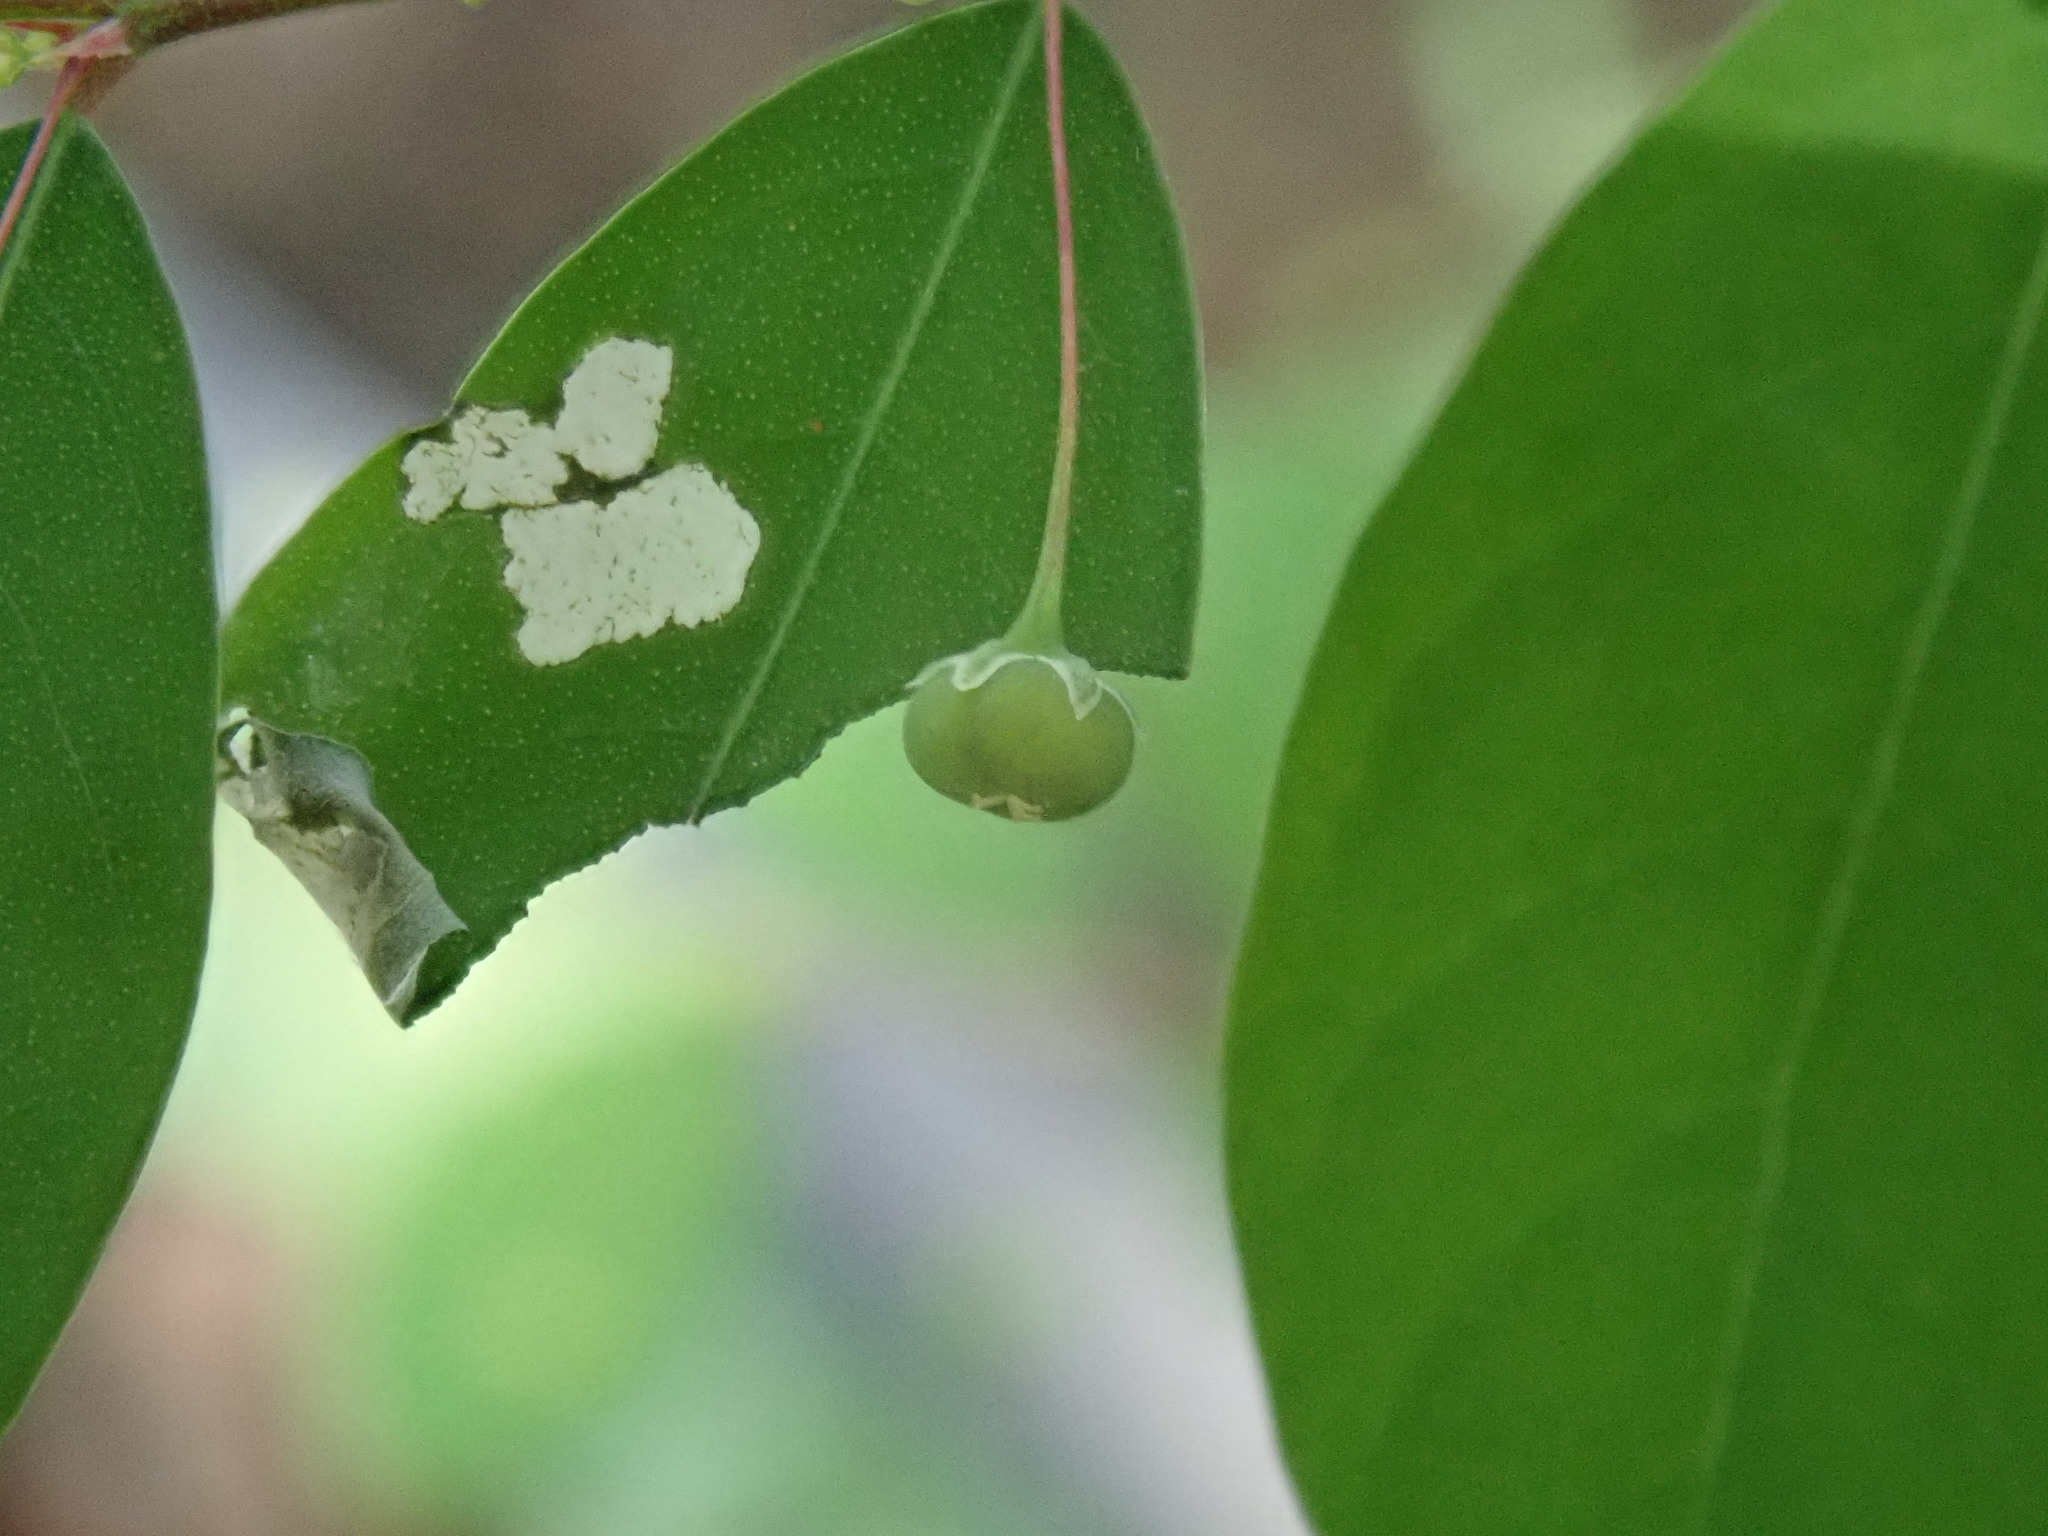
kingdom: Plantae
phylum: Tracheophyta
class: Magnoliopsida
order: Malpighiales
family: Phyllanthaceae
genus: Phyllanthus
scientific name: Phyllanthus tenellus
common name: Mascarene island leaf-flower
